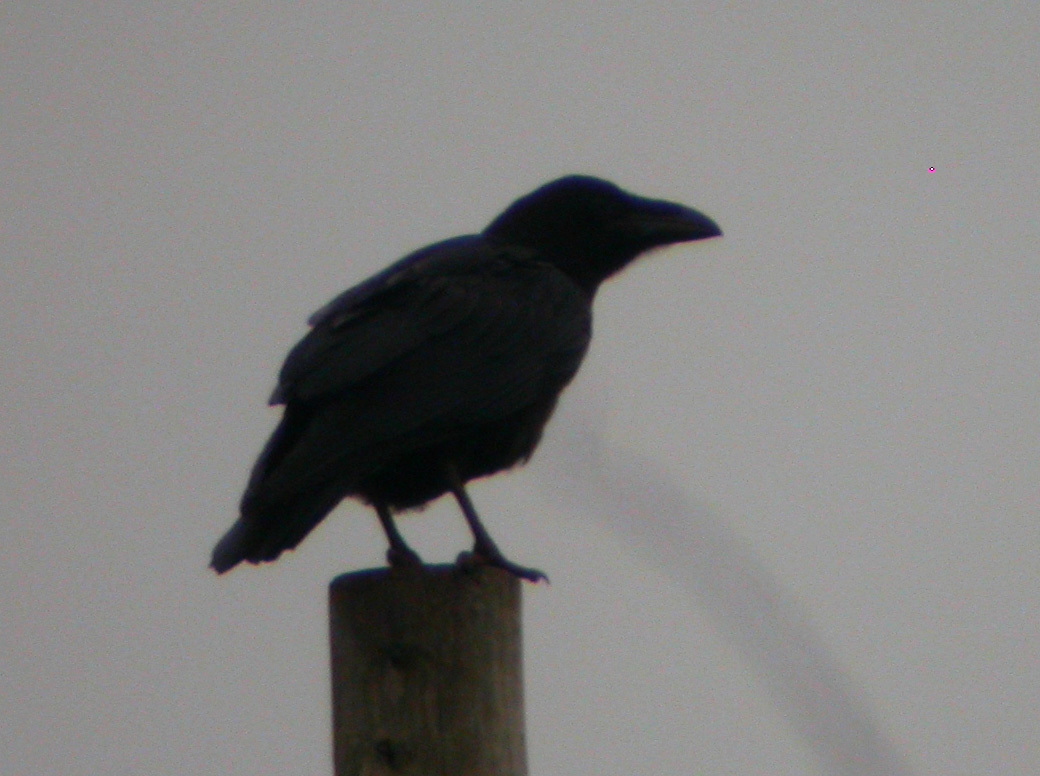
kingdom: Animalia
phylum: Chordata
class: Aves
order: Passeriformes
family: Corvidae
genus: Corvus
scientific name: Corvus corax
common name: Common raven
